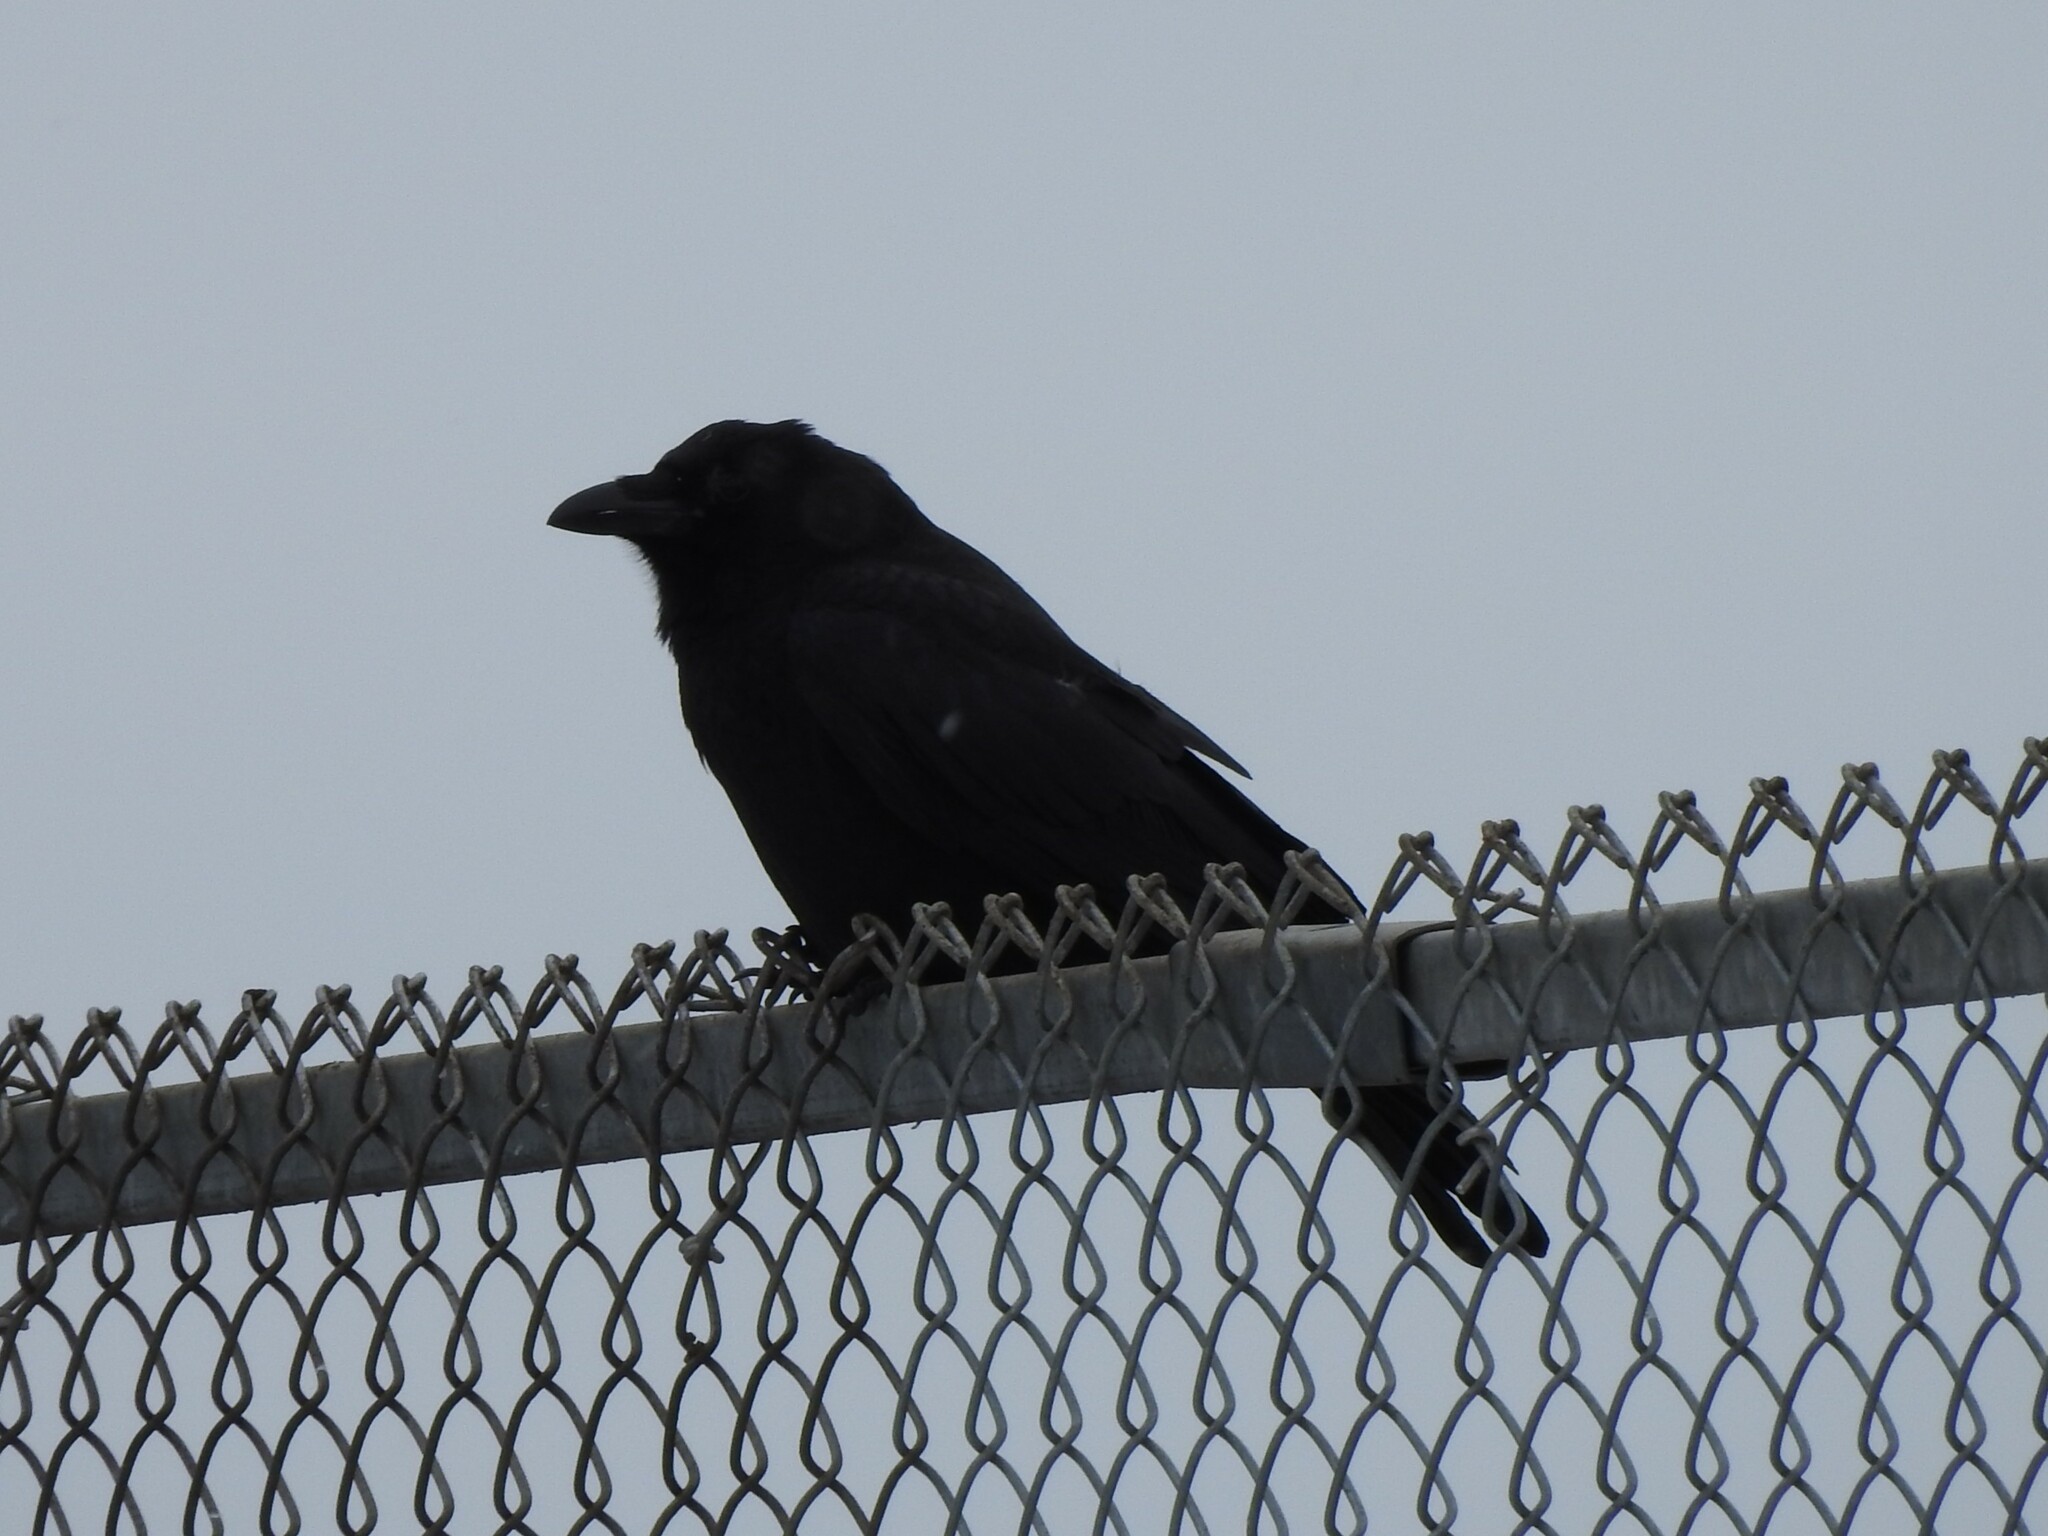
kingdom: Animalia
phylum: Chordata
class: Aves
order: Passeriformes
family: Corvidae
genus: Corvus
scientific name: Corvus corax
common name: Common raven
